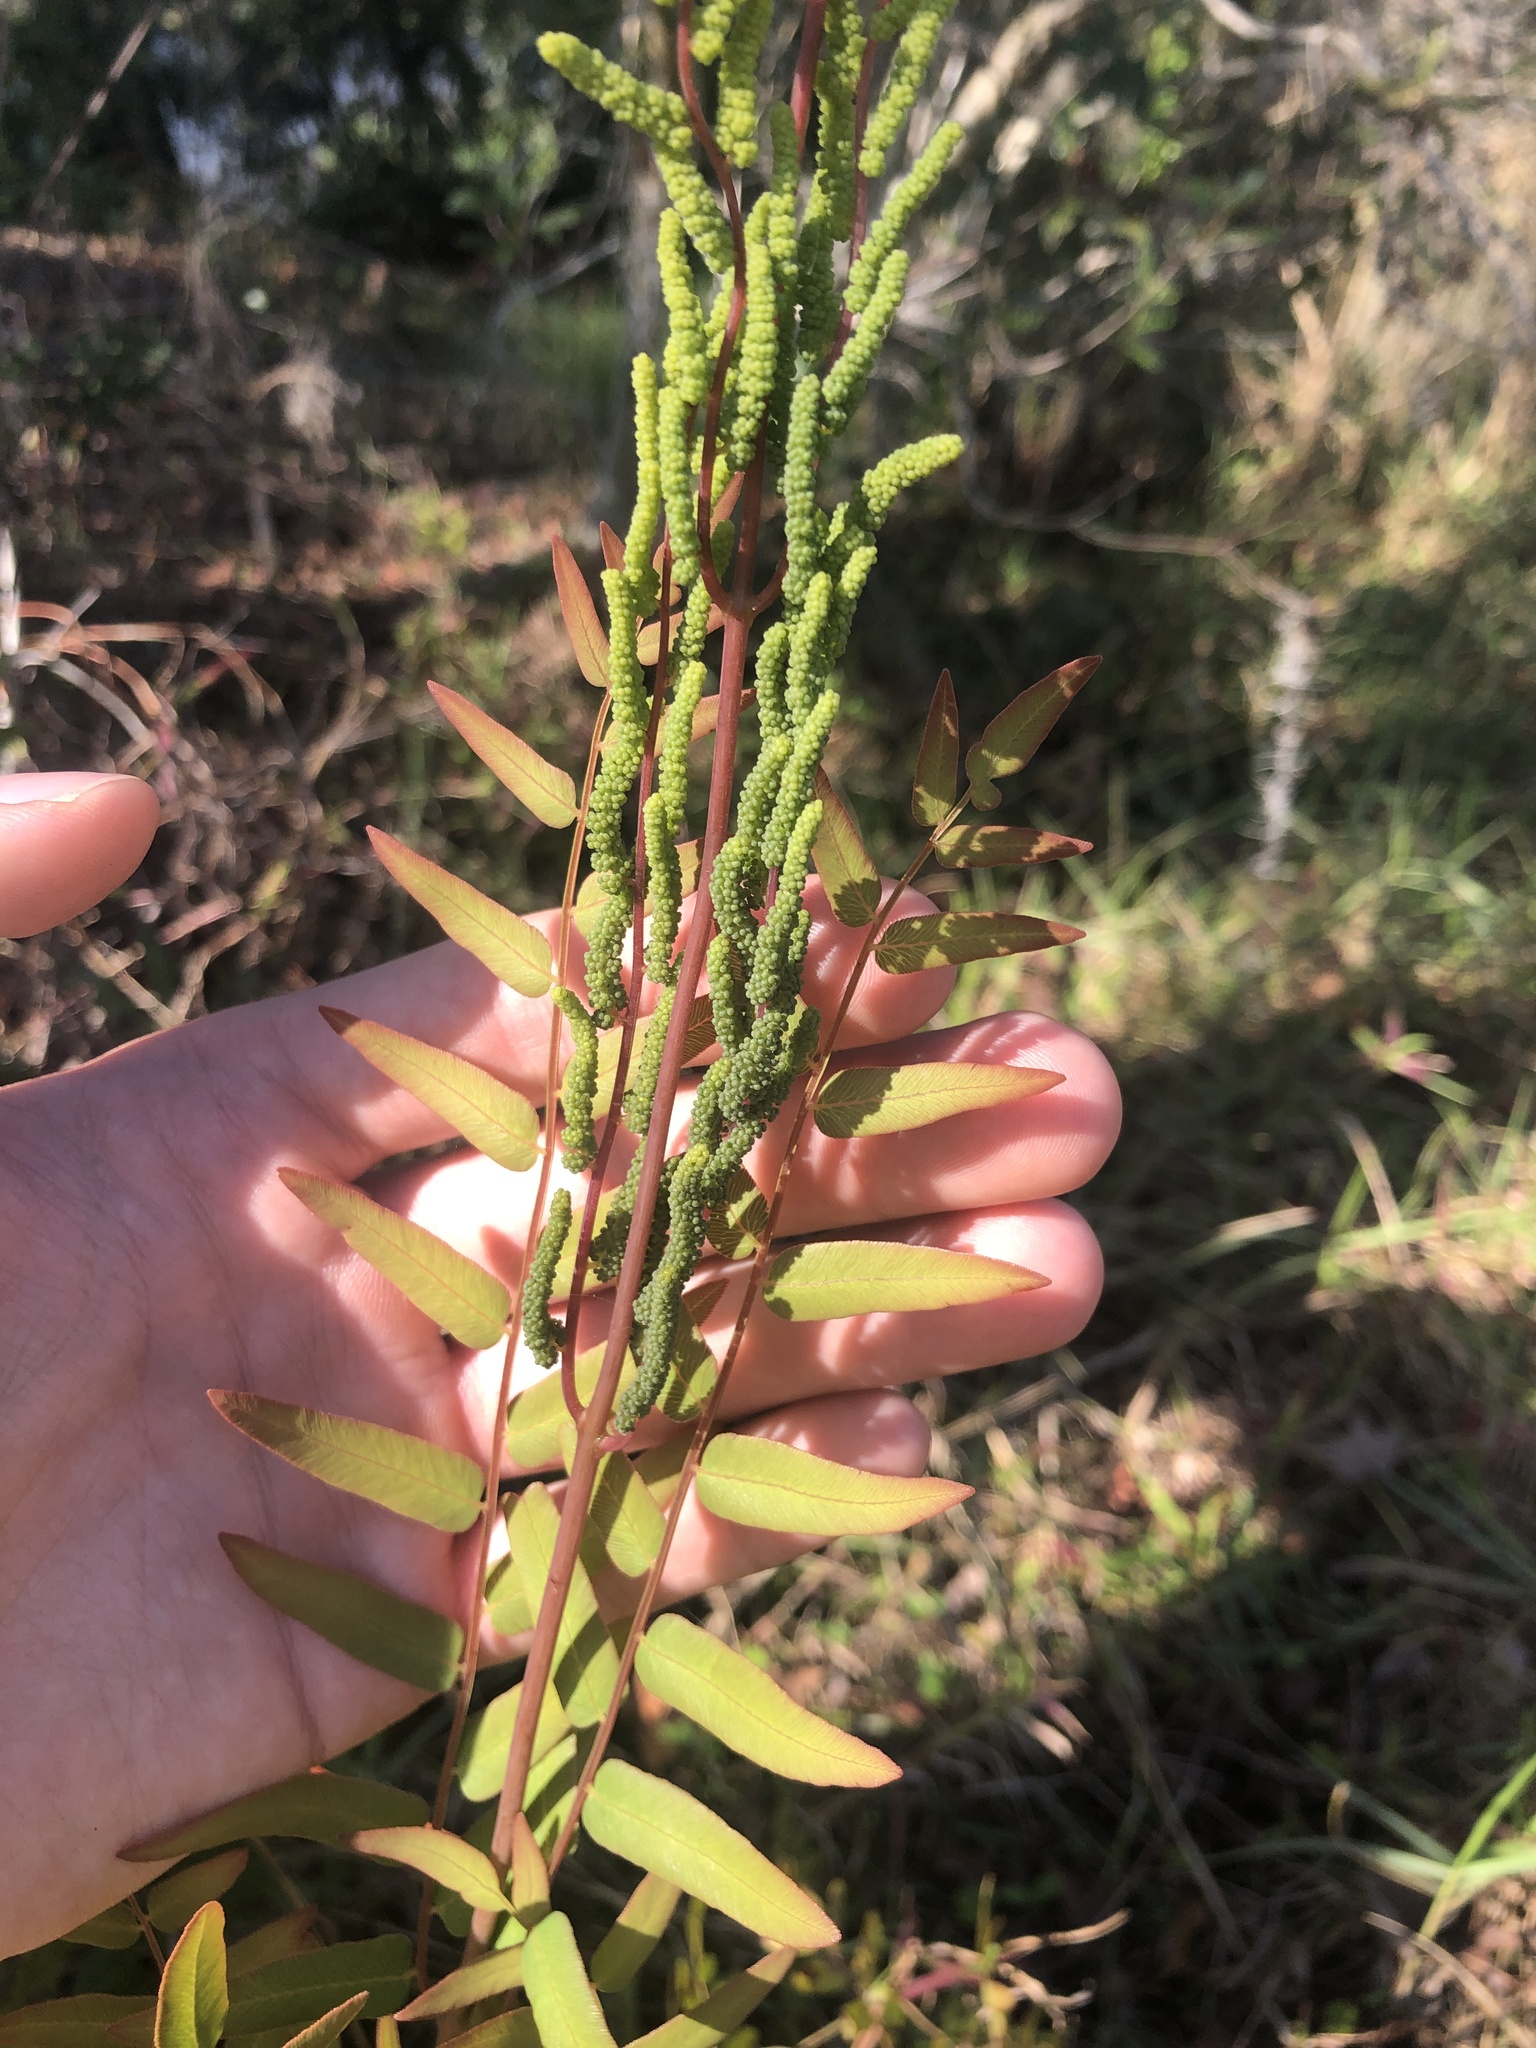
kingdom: Plantae
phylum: Tracheophyta
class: Polypodiopsida
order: Osmundales
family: Osmundaceae
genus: Osmunda
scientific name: Osmunda spectabilis
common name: American royal fern
